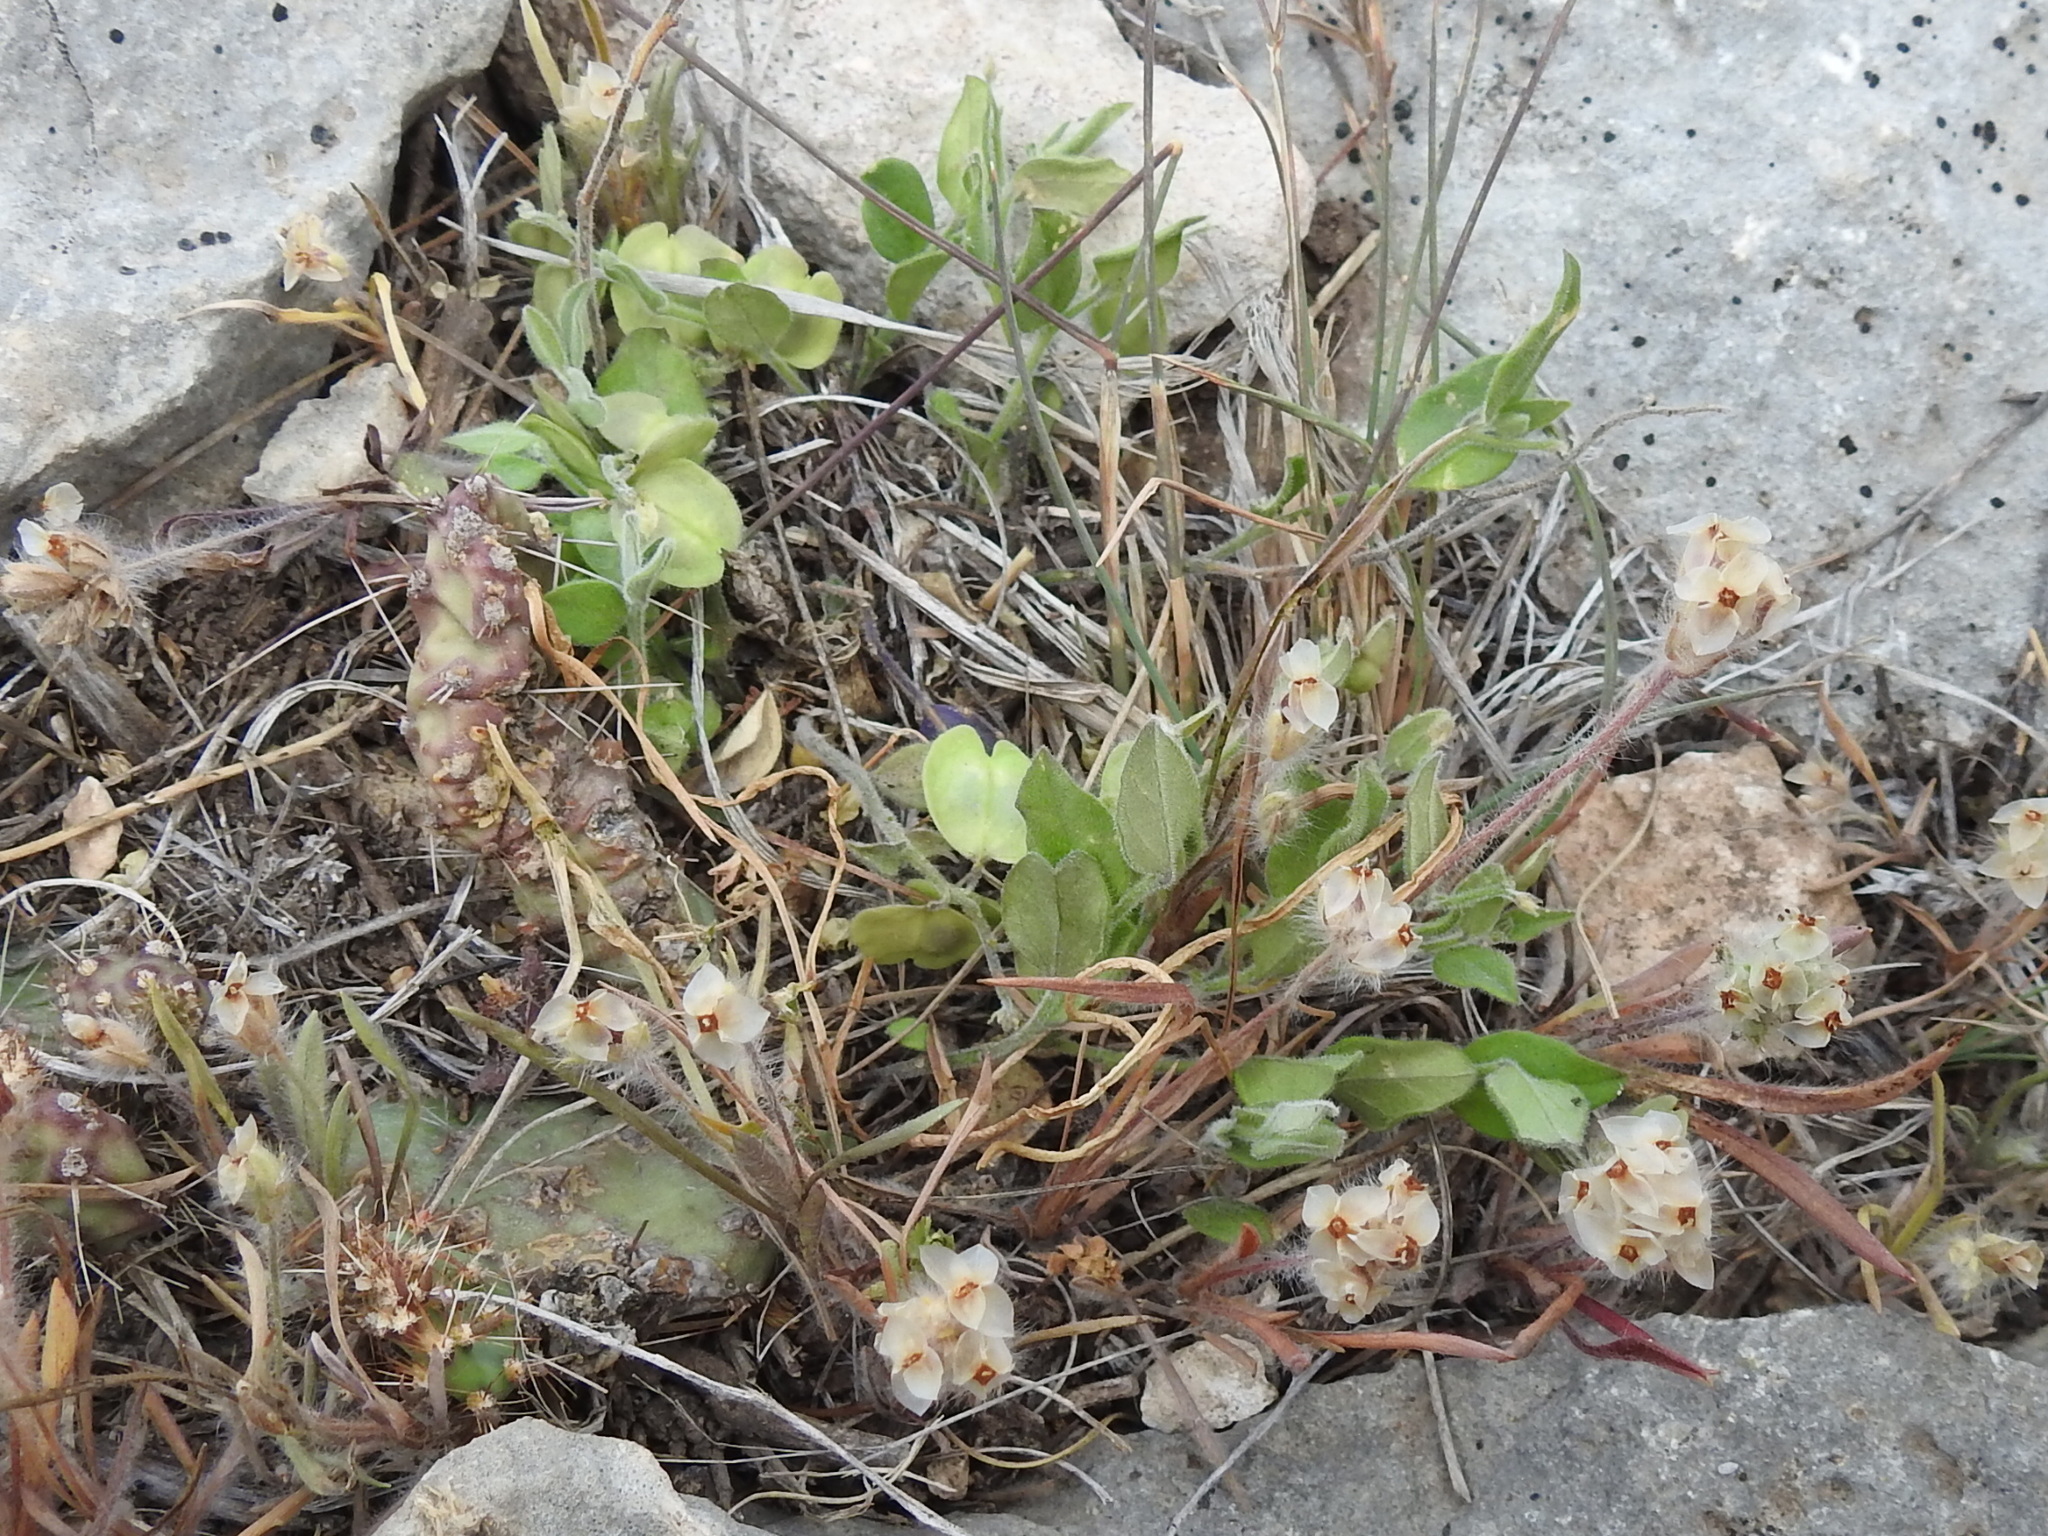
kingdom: Plantae
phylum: Tracheophyta
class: Magnoliopsida
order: Fabales
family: Polygalaceae
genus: Hebecarpa
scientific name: Hebecarpa ovatifolia
